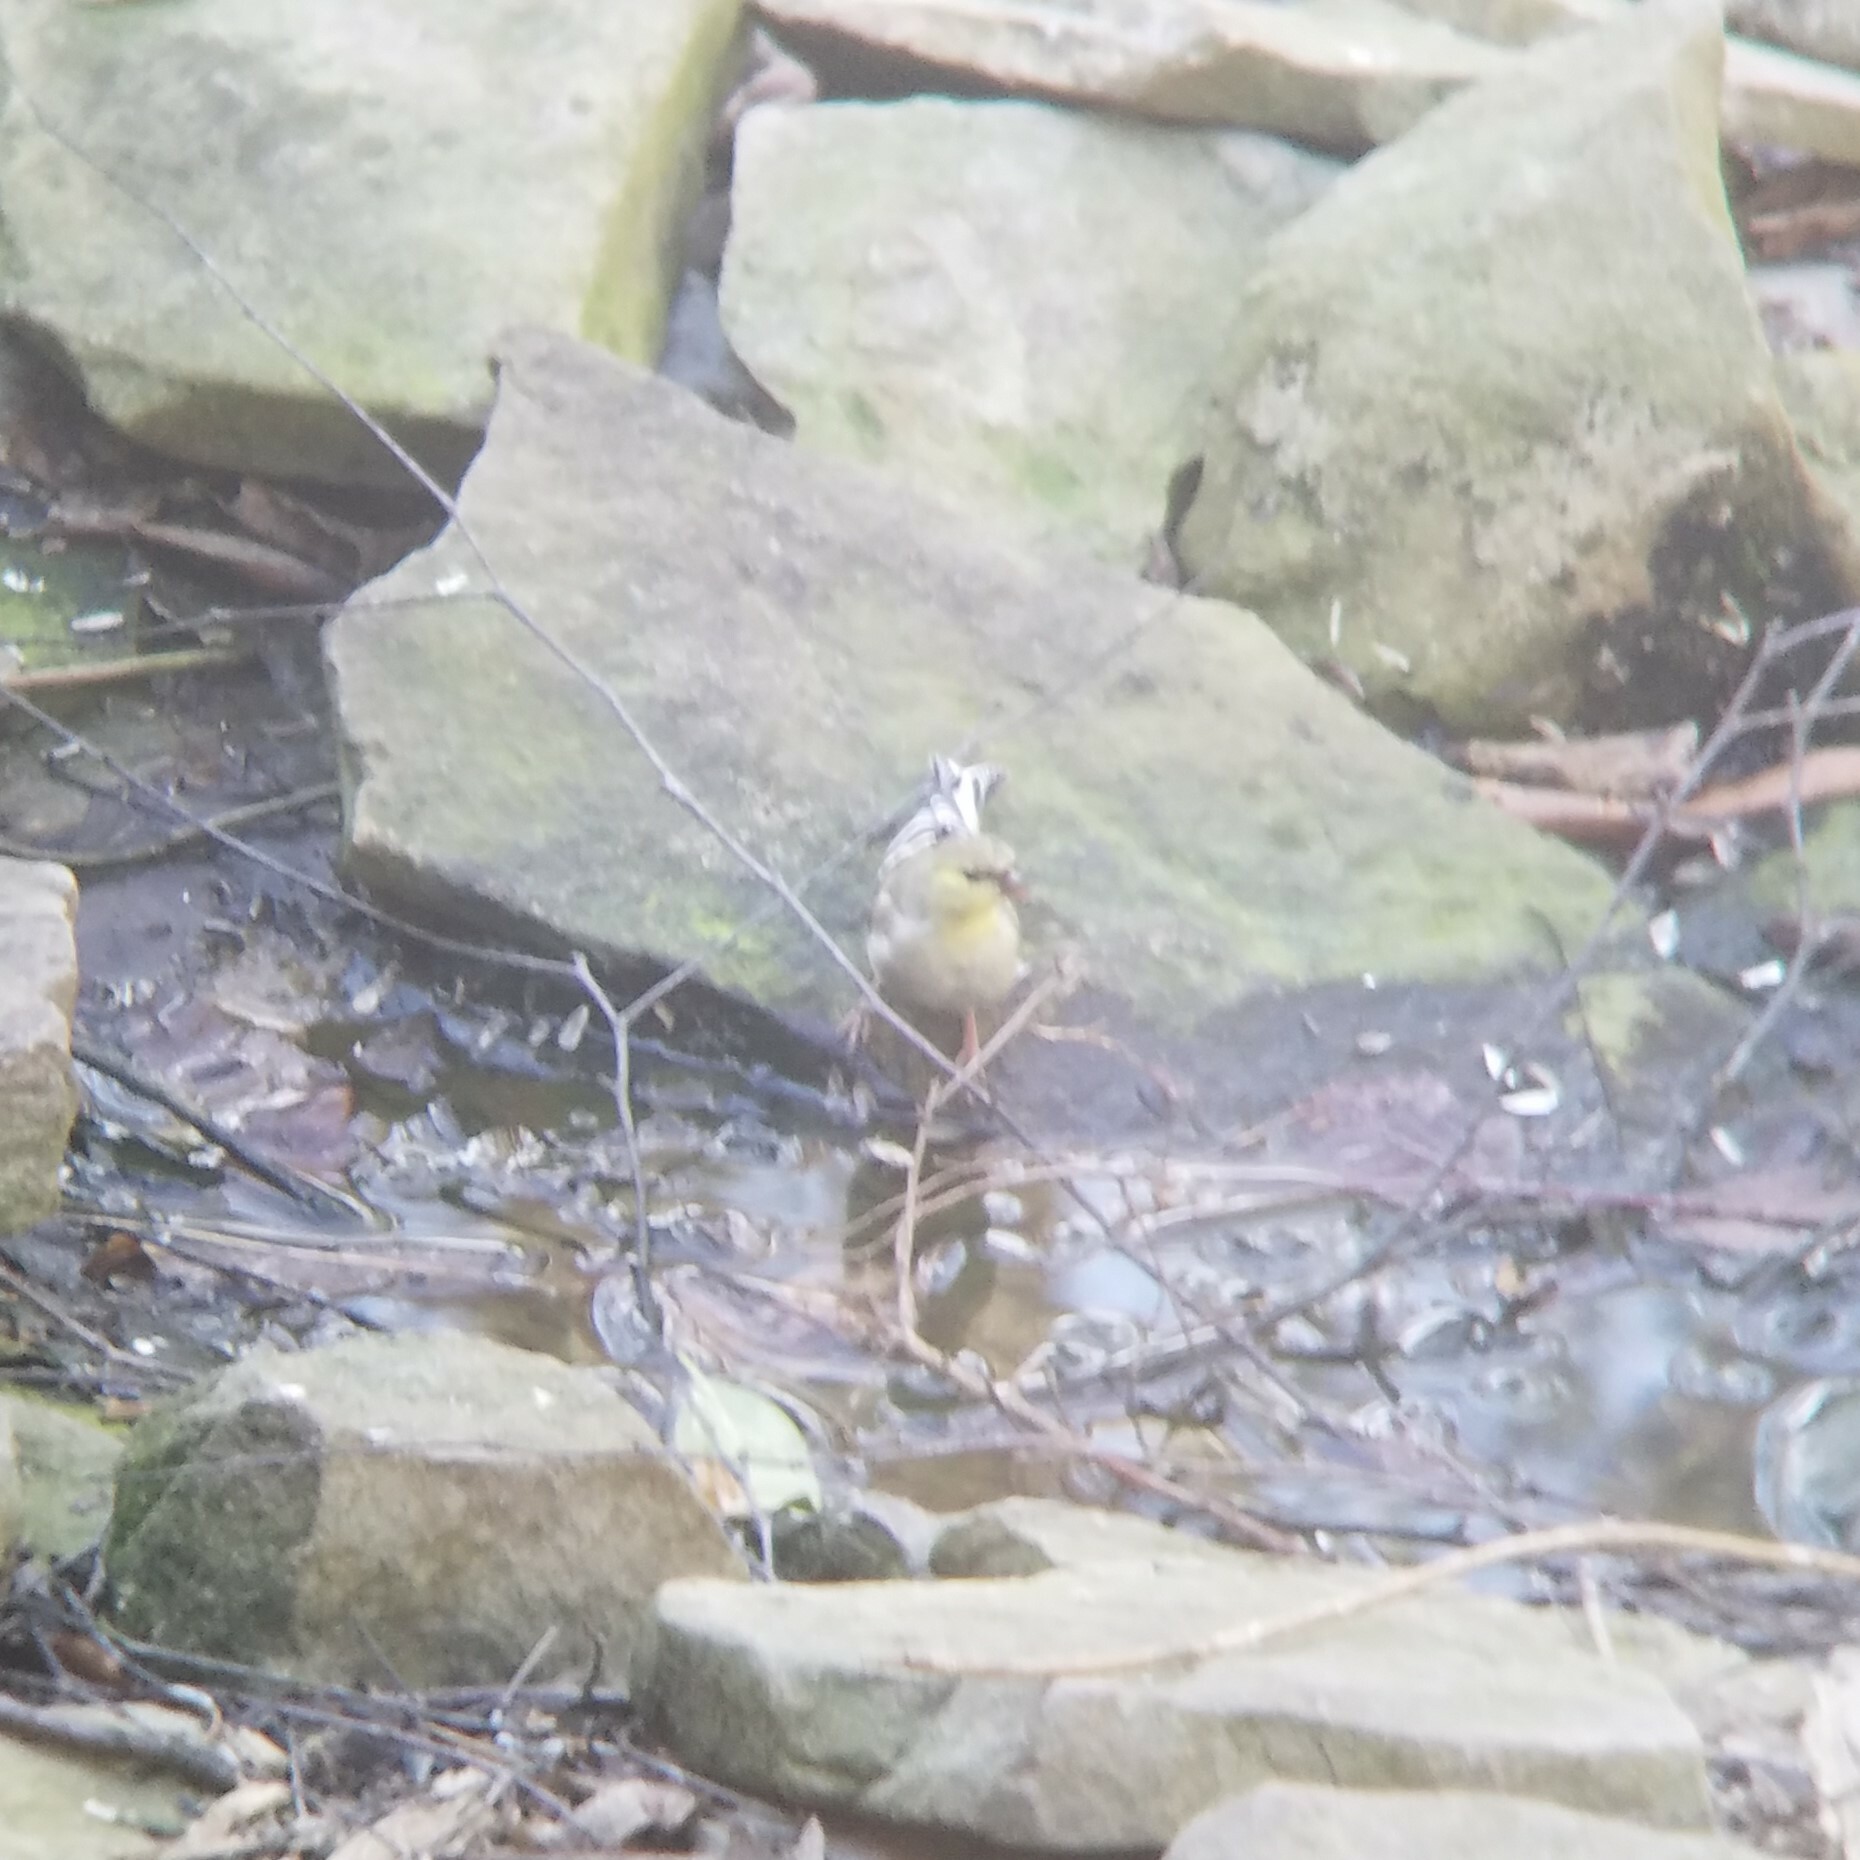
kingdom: Animalia
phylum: Chordata
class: Aves
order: Passeriformes
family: Fringillidae
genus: Spinus
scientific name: Spinus tristis
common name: American goldfinch
